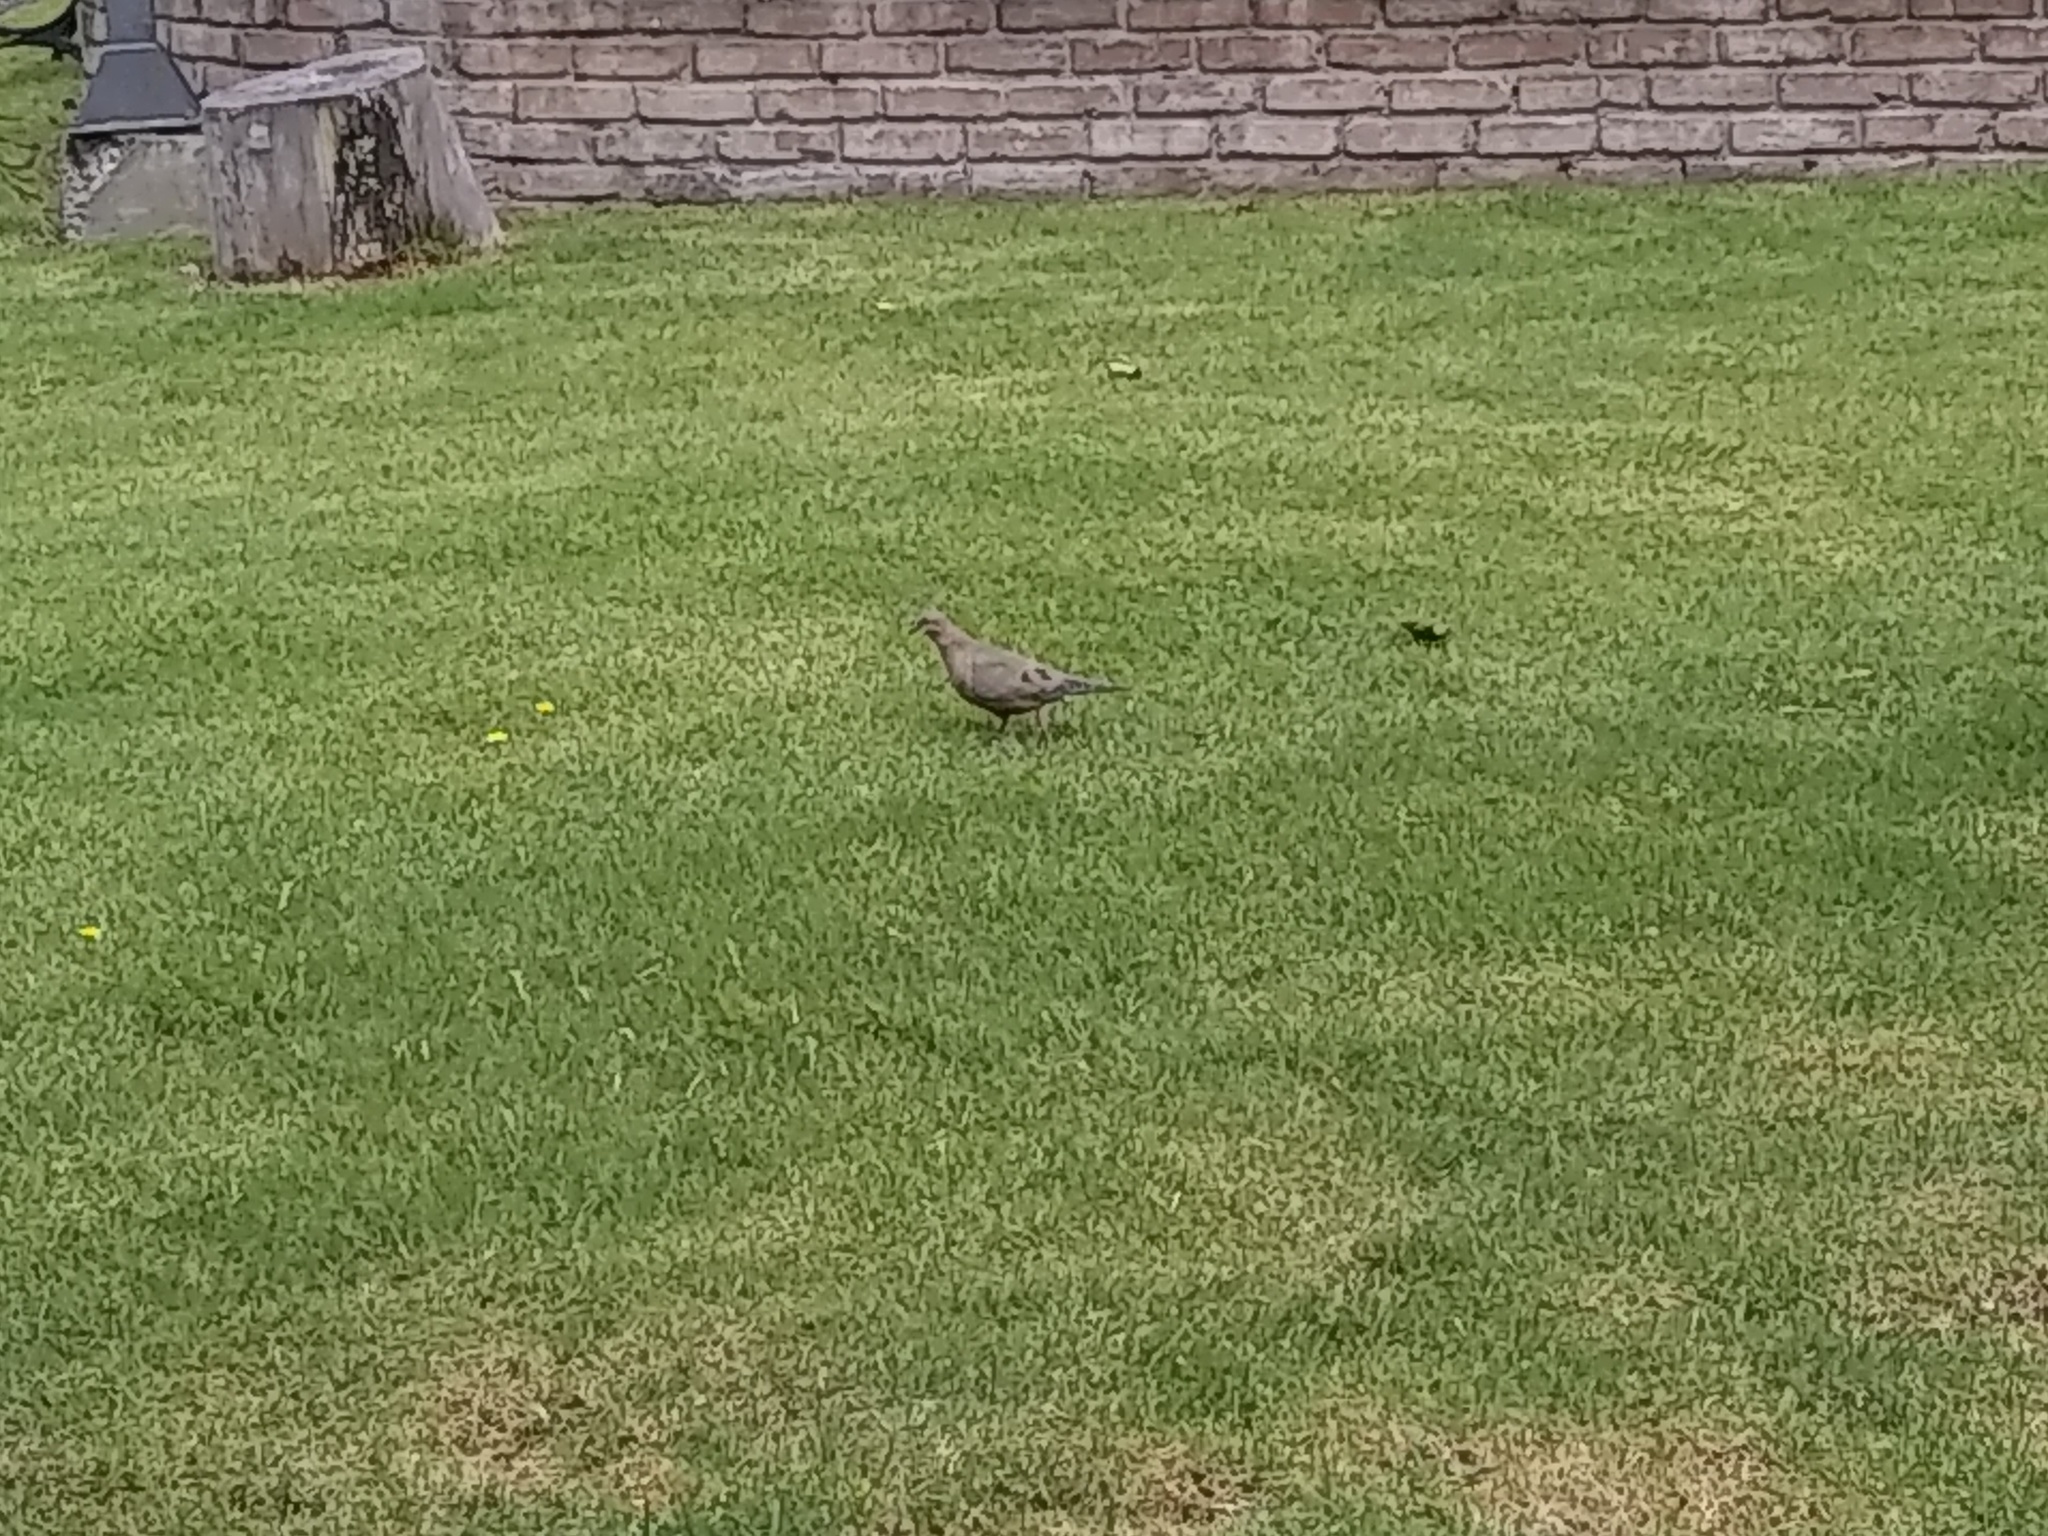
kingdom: Animalia
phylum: Chordata
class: Aves
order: Columbiformes
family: Columbidae
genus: Zenaida
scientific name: Zenaida auriculata
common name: Eared dove
